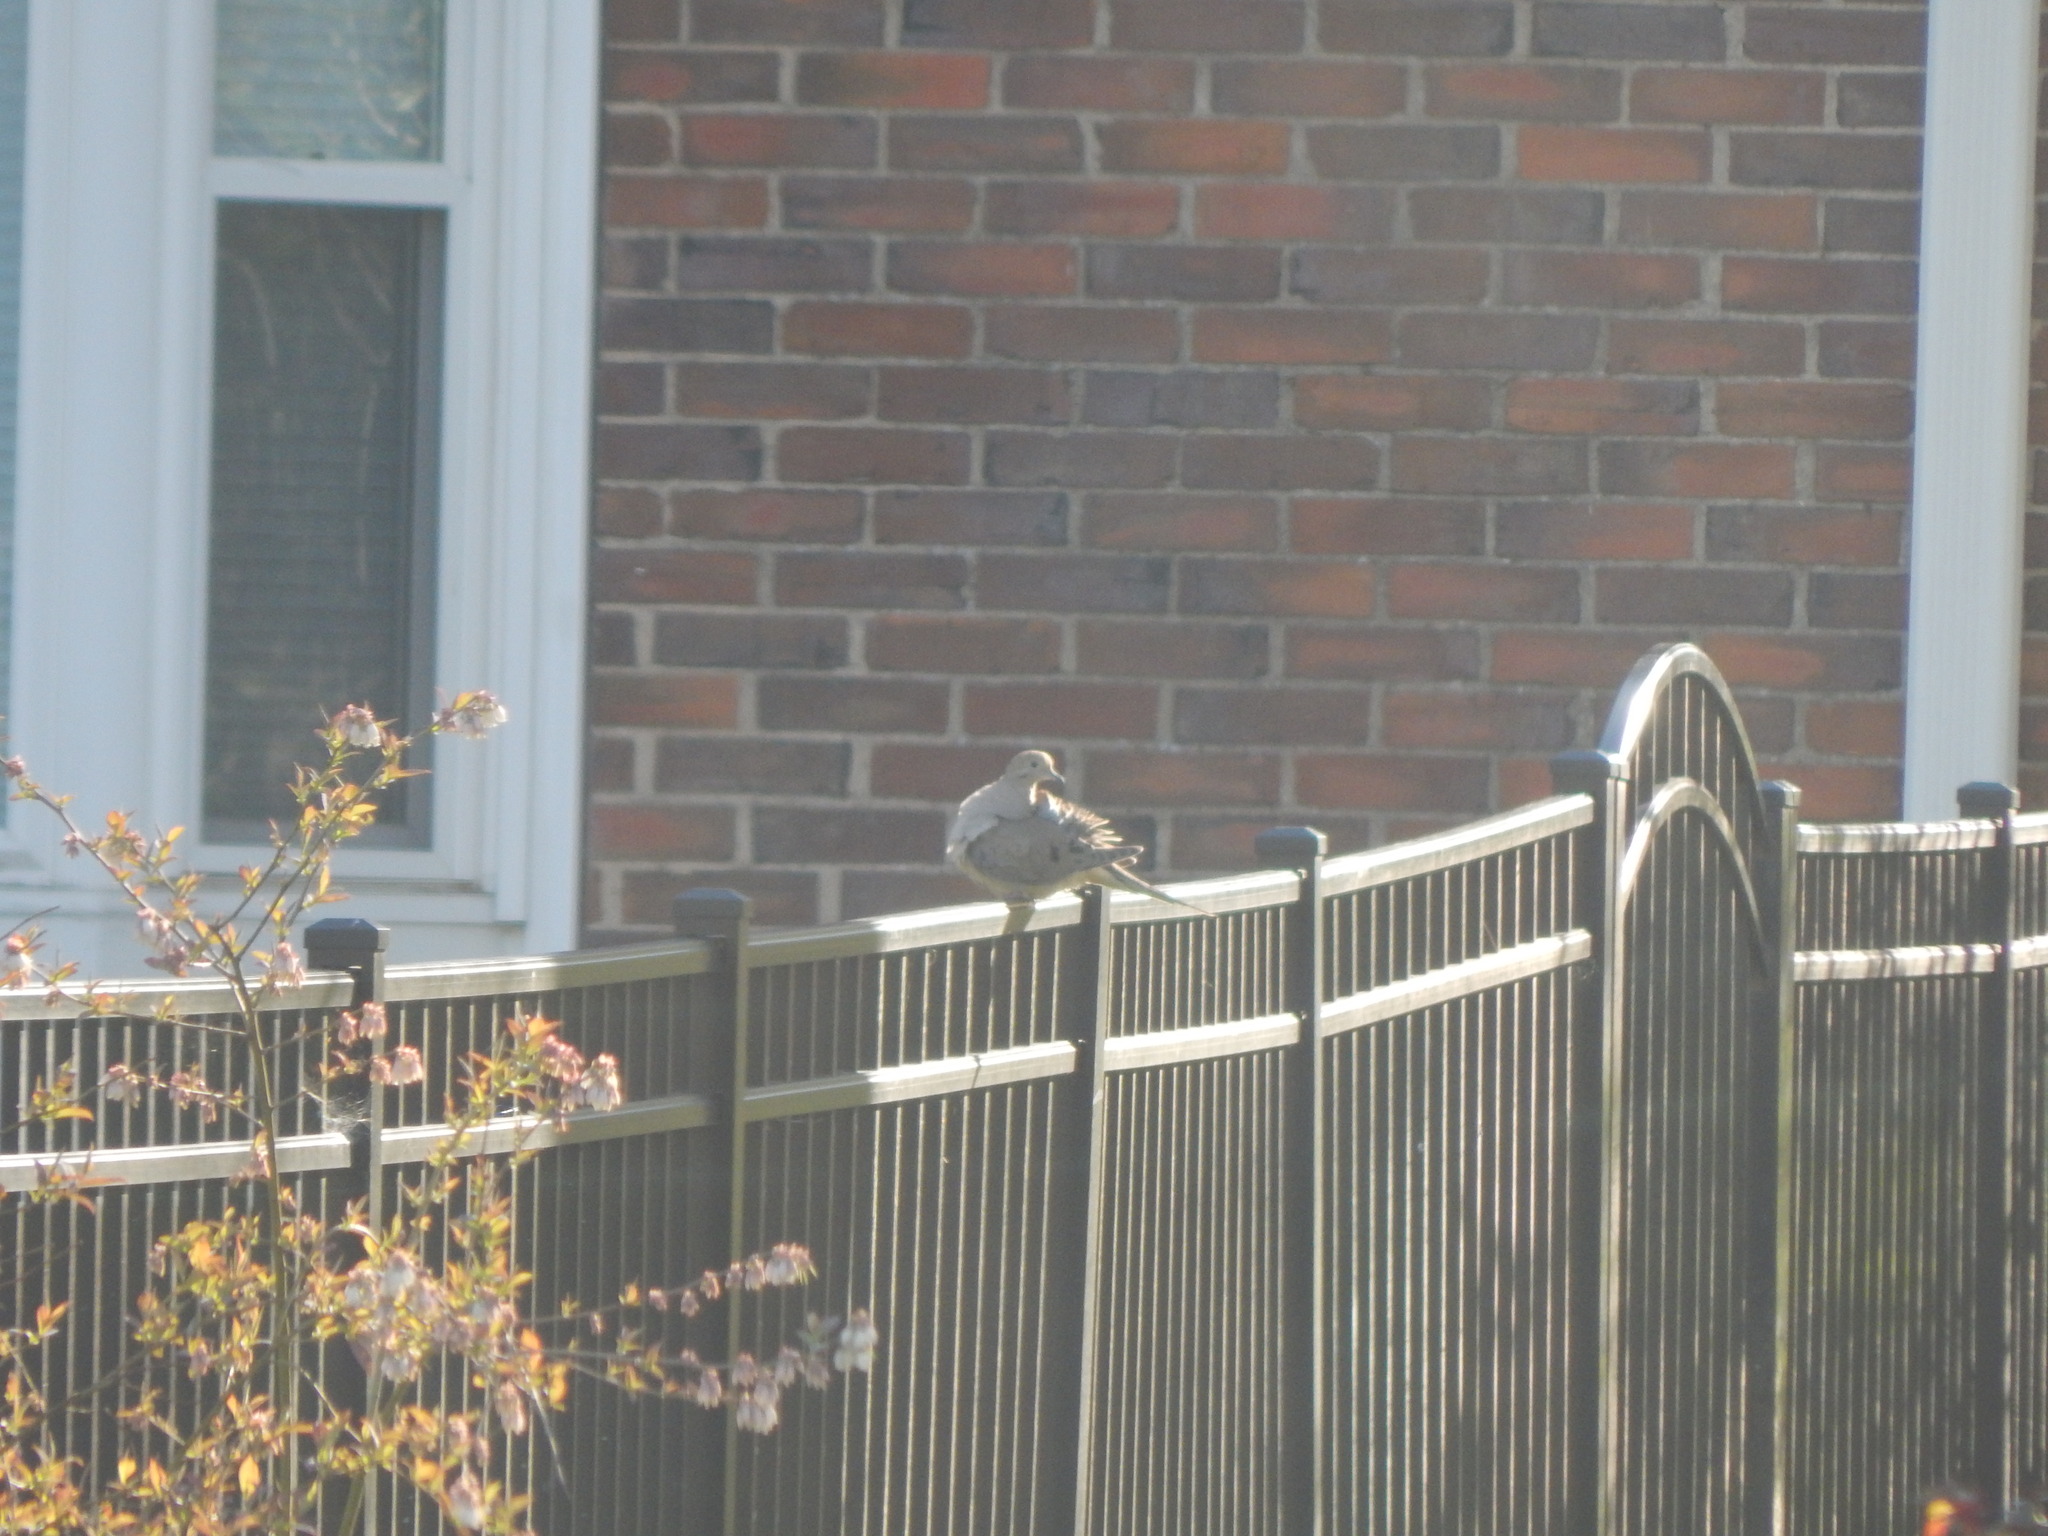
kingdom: Animalia
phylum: Chordata
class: Aves
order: Columbiformes
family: Columbidae
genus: Zenaida
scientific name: Zenaida macroura
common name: Mourning dove
